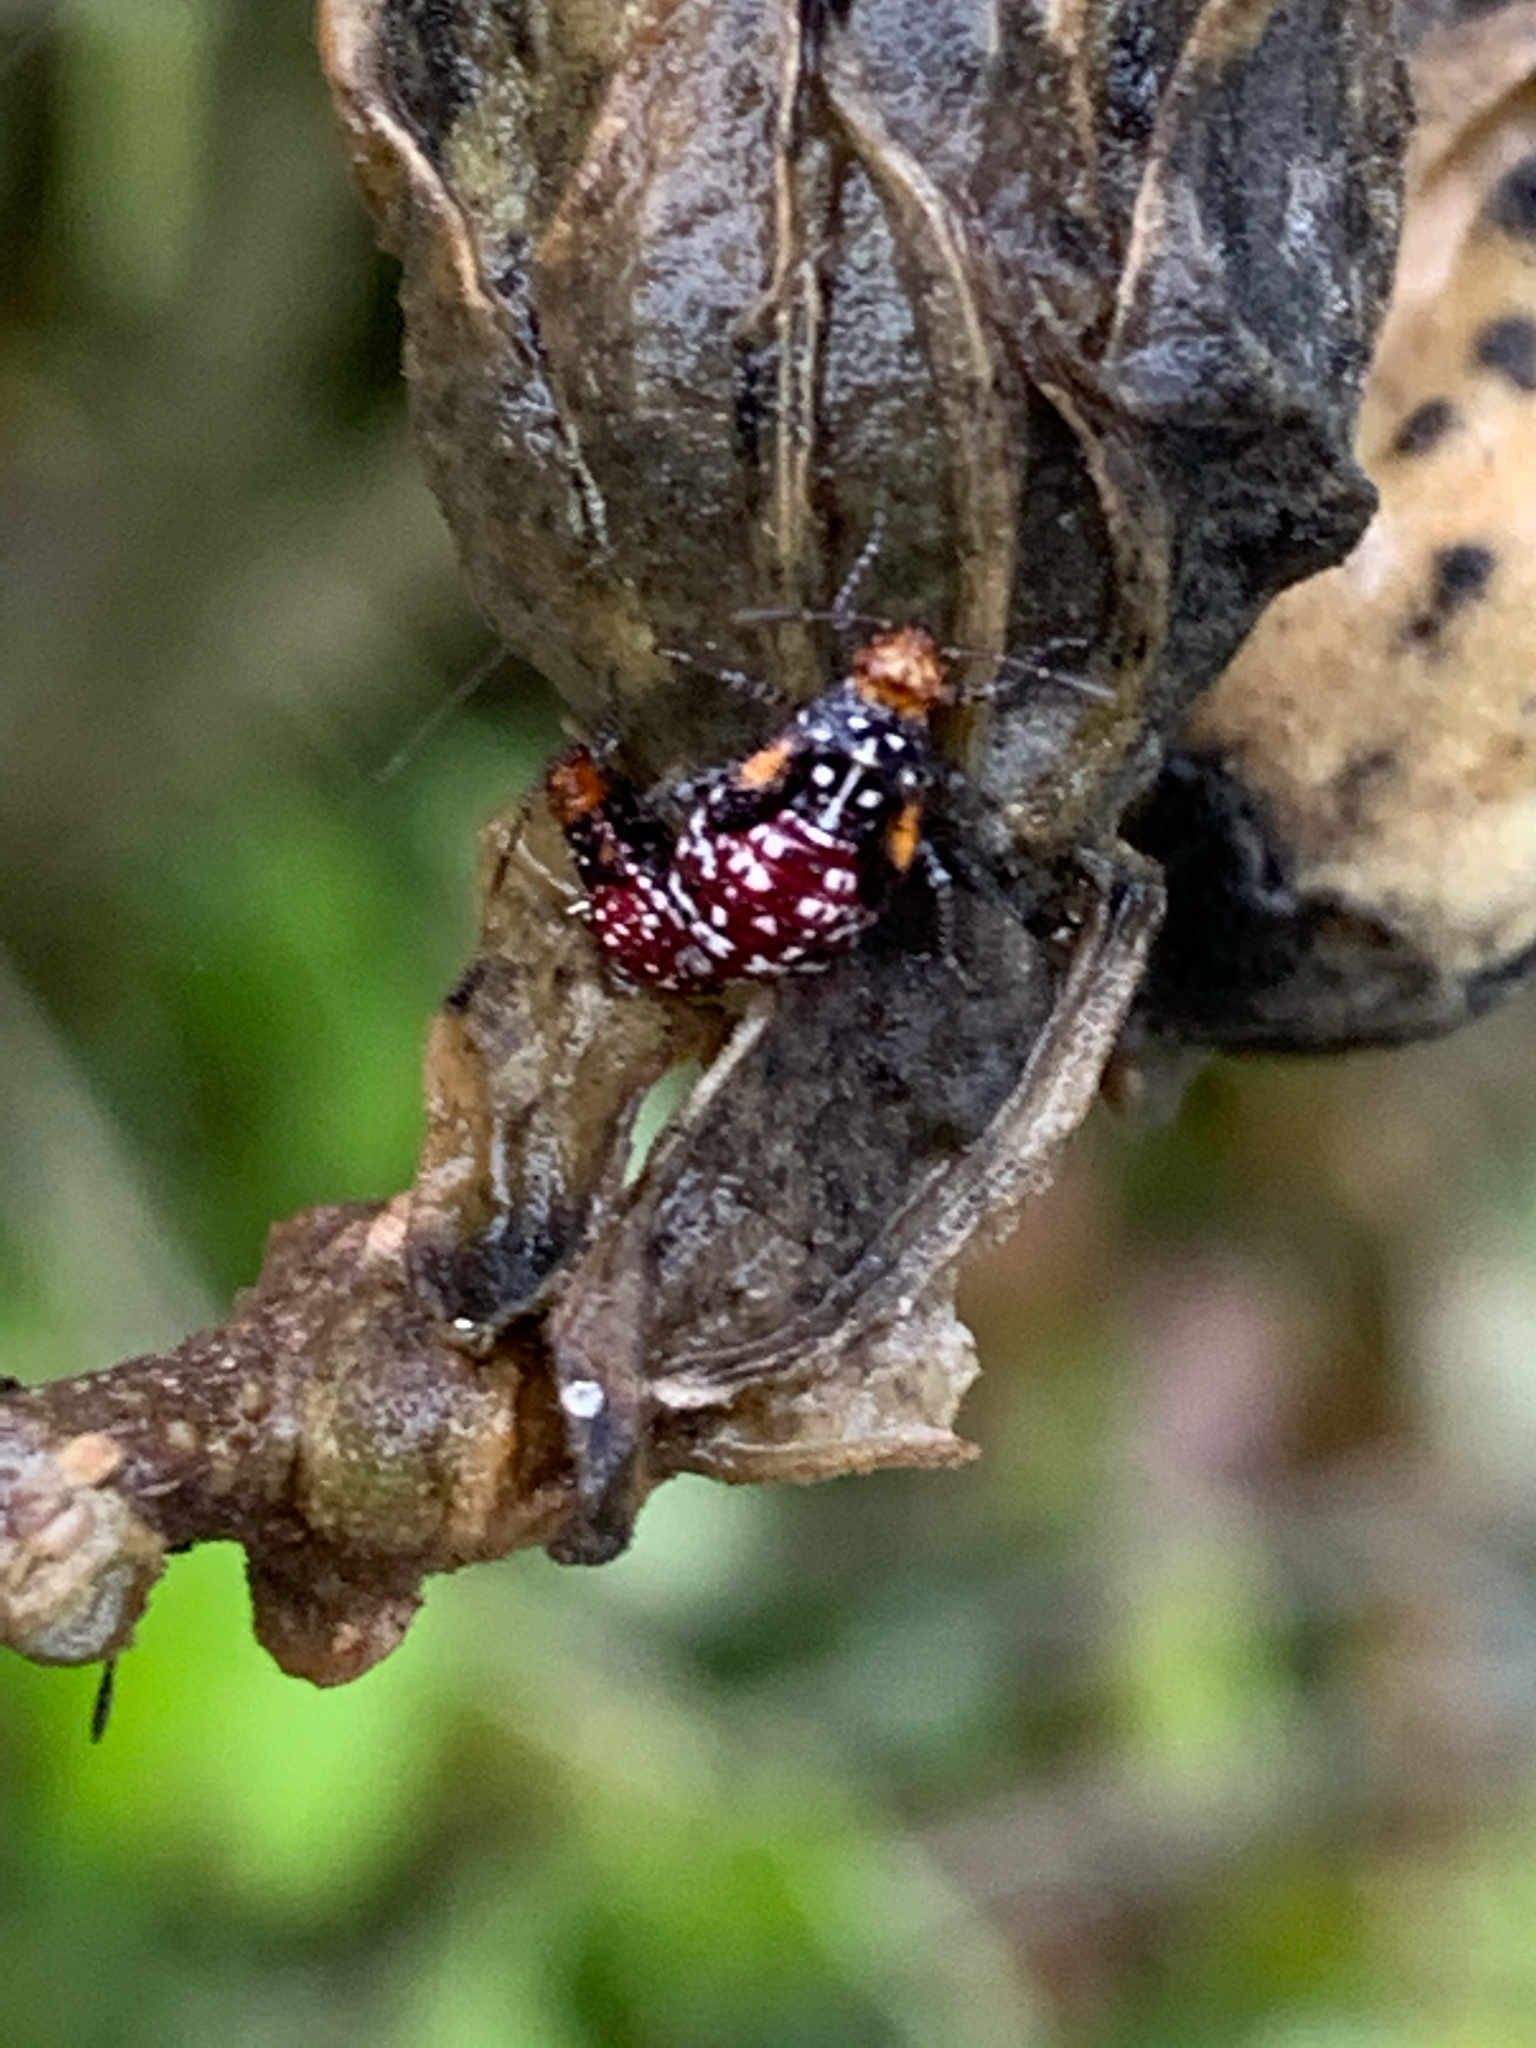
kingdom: Animalia
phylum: Arthropoda
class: Insecta
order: Hemiptera
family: Rhopalidae
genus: Niesthrea
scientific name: Niesthrea louisianica
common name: Scentless plant bug
